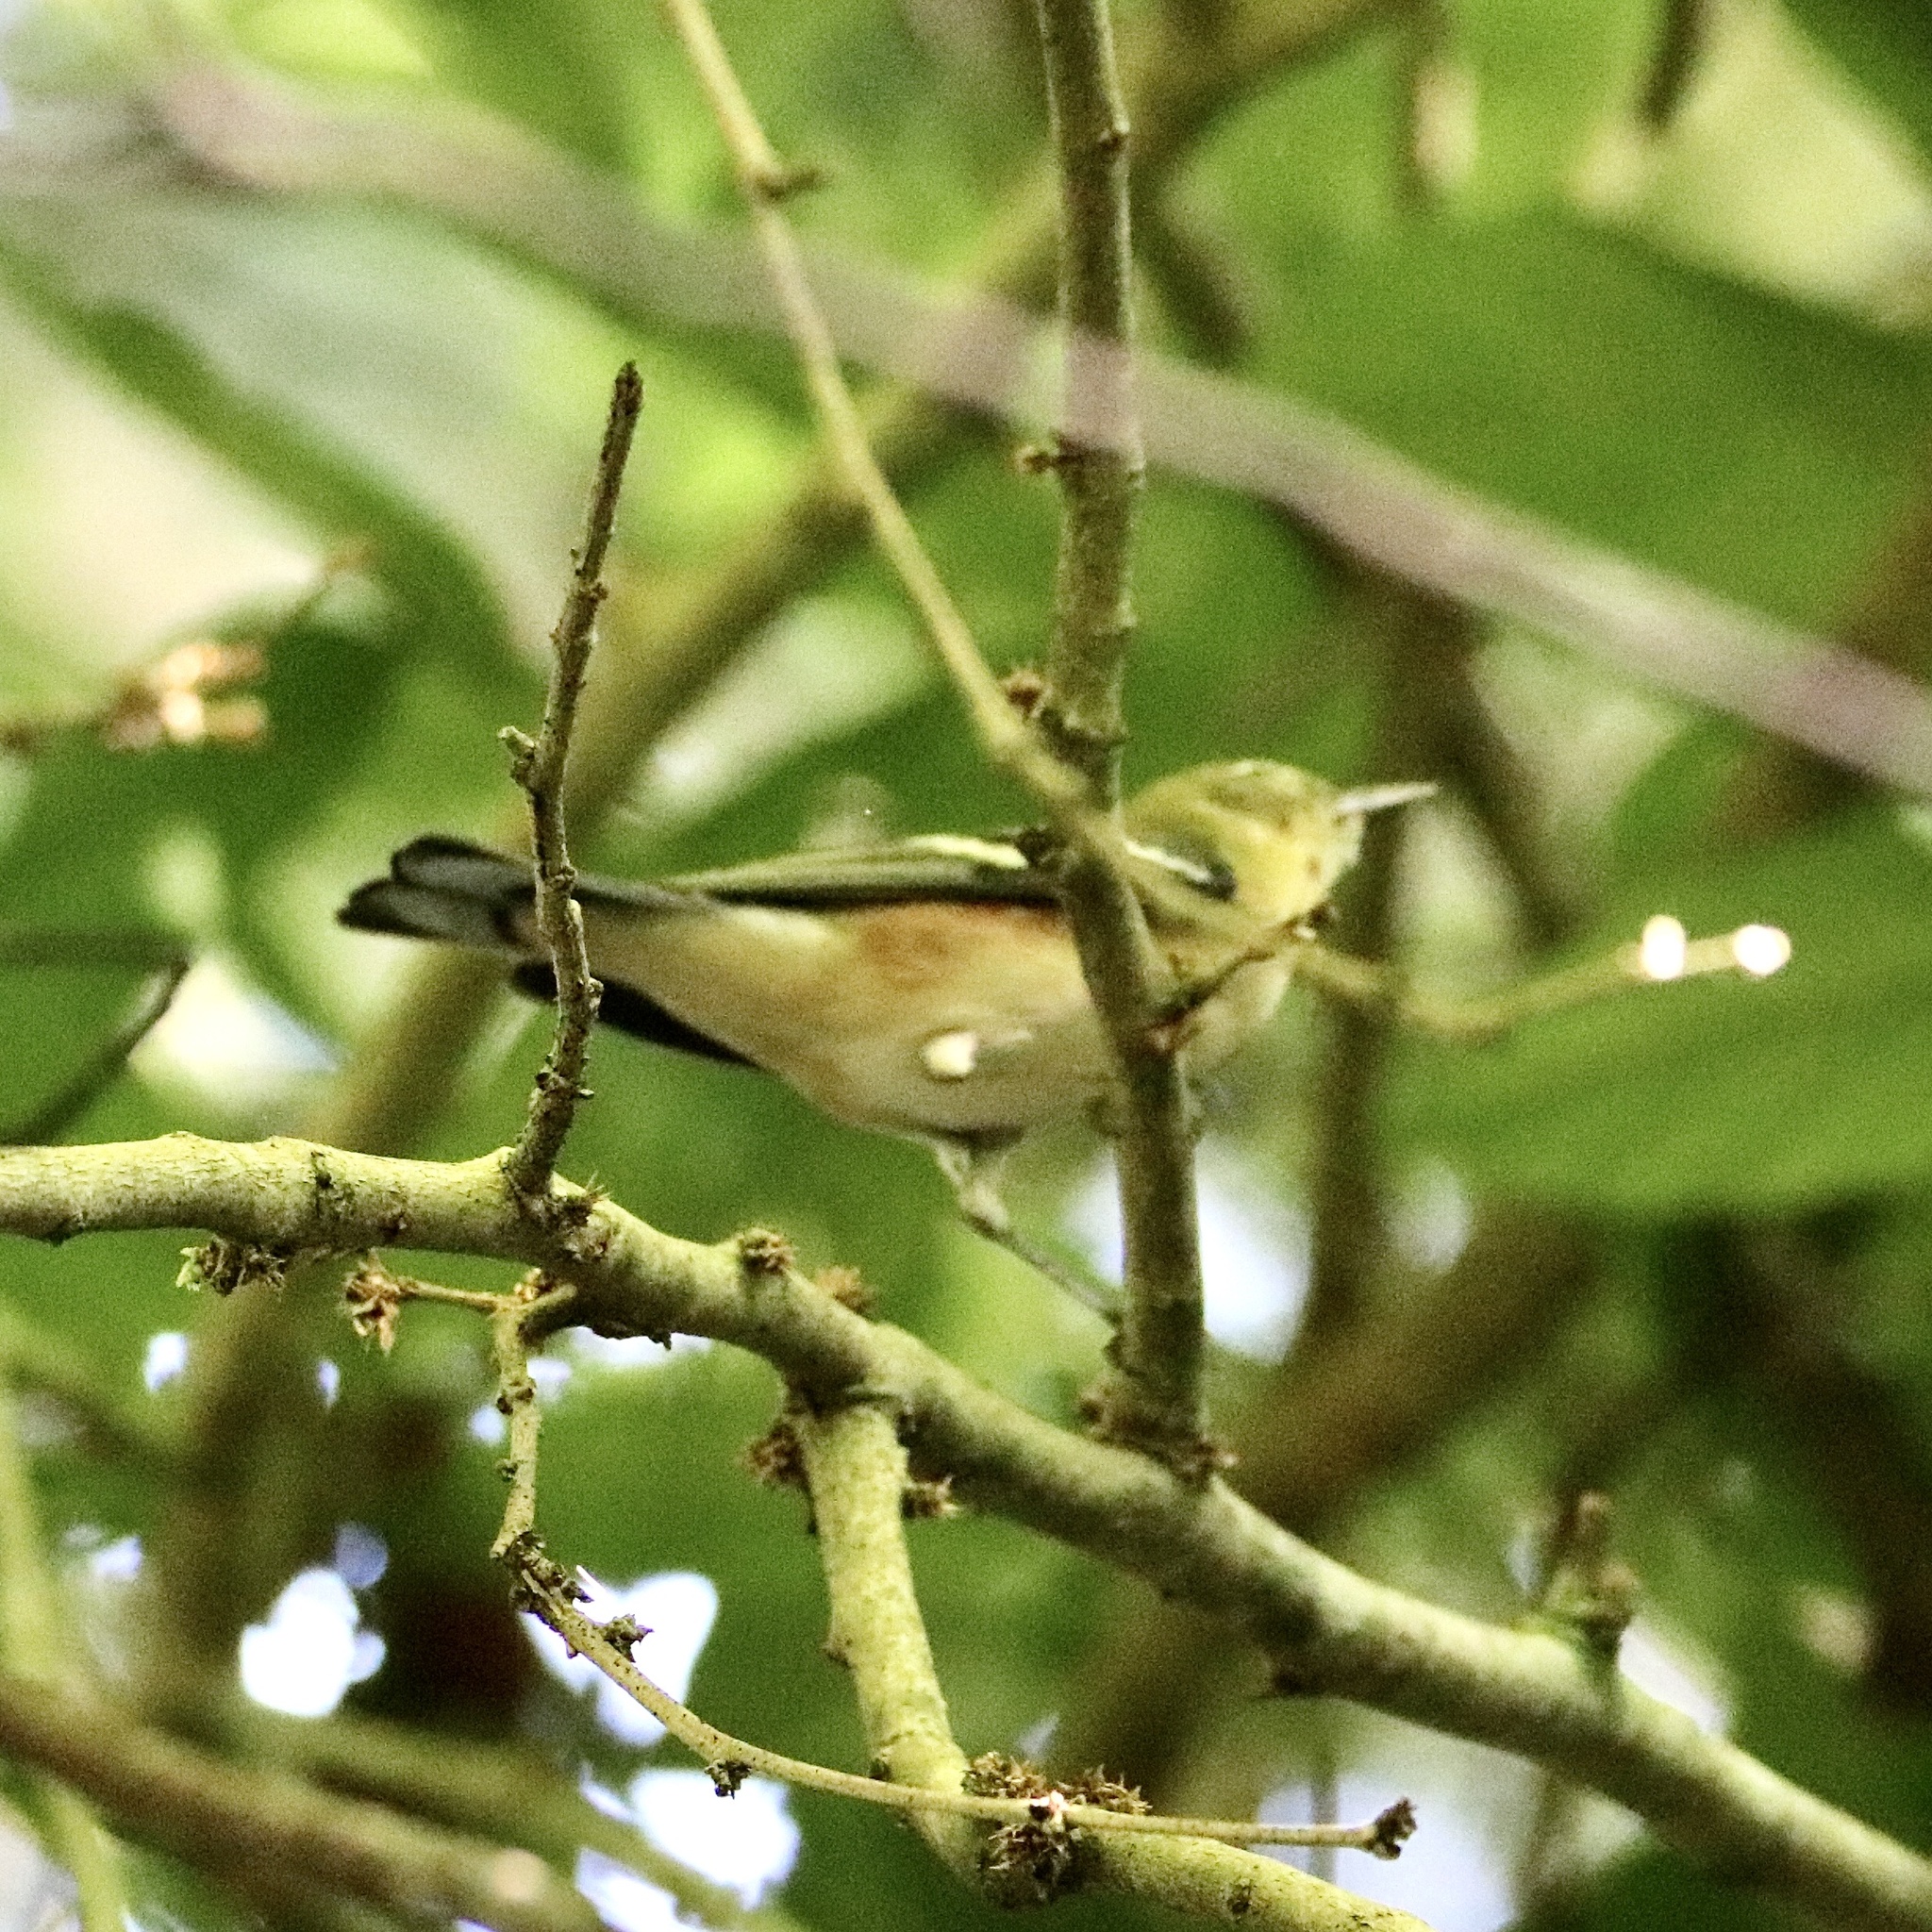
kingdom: Animalia
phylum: Chordata
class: Aves
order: Passeriformes
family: Parulidae
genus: Setophaga
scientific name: Setophaga castanea
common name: Bay-breasted warbler
